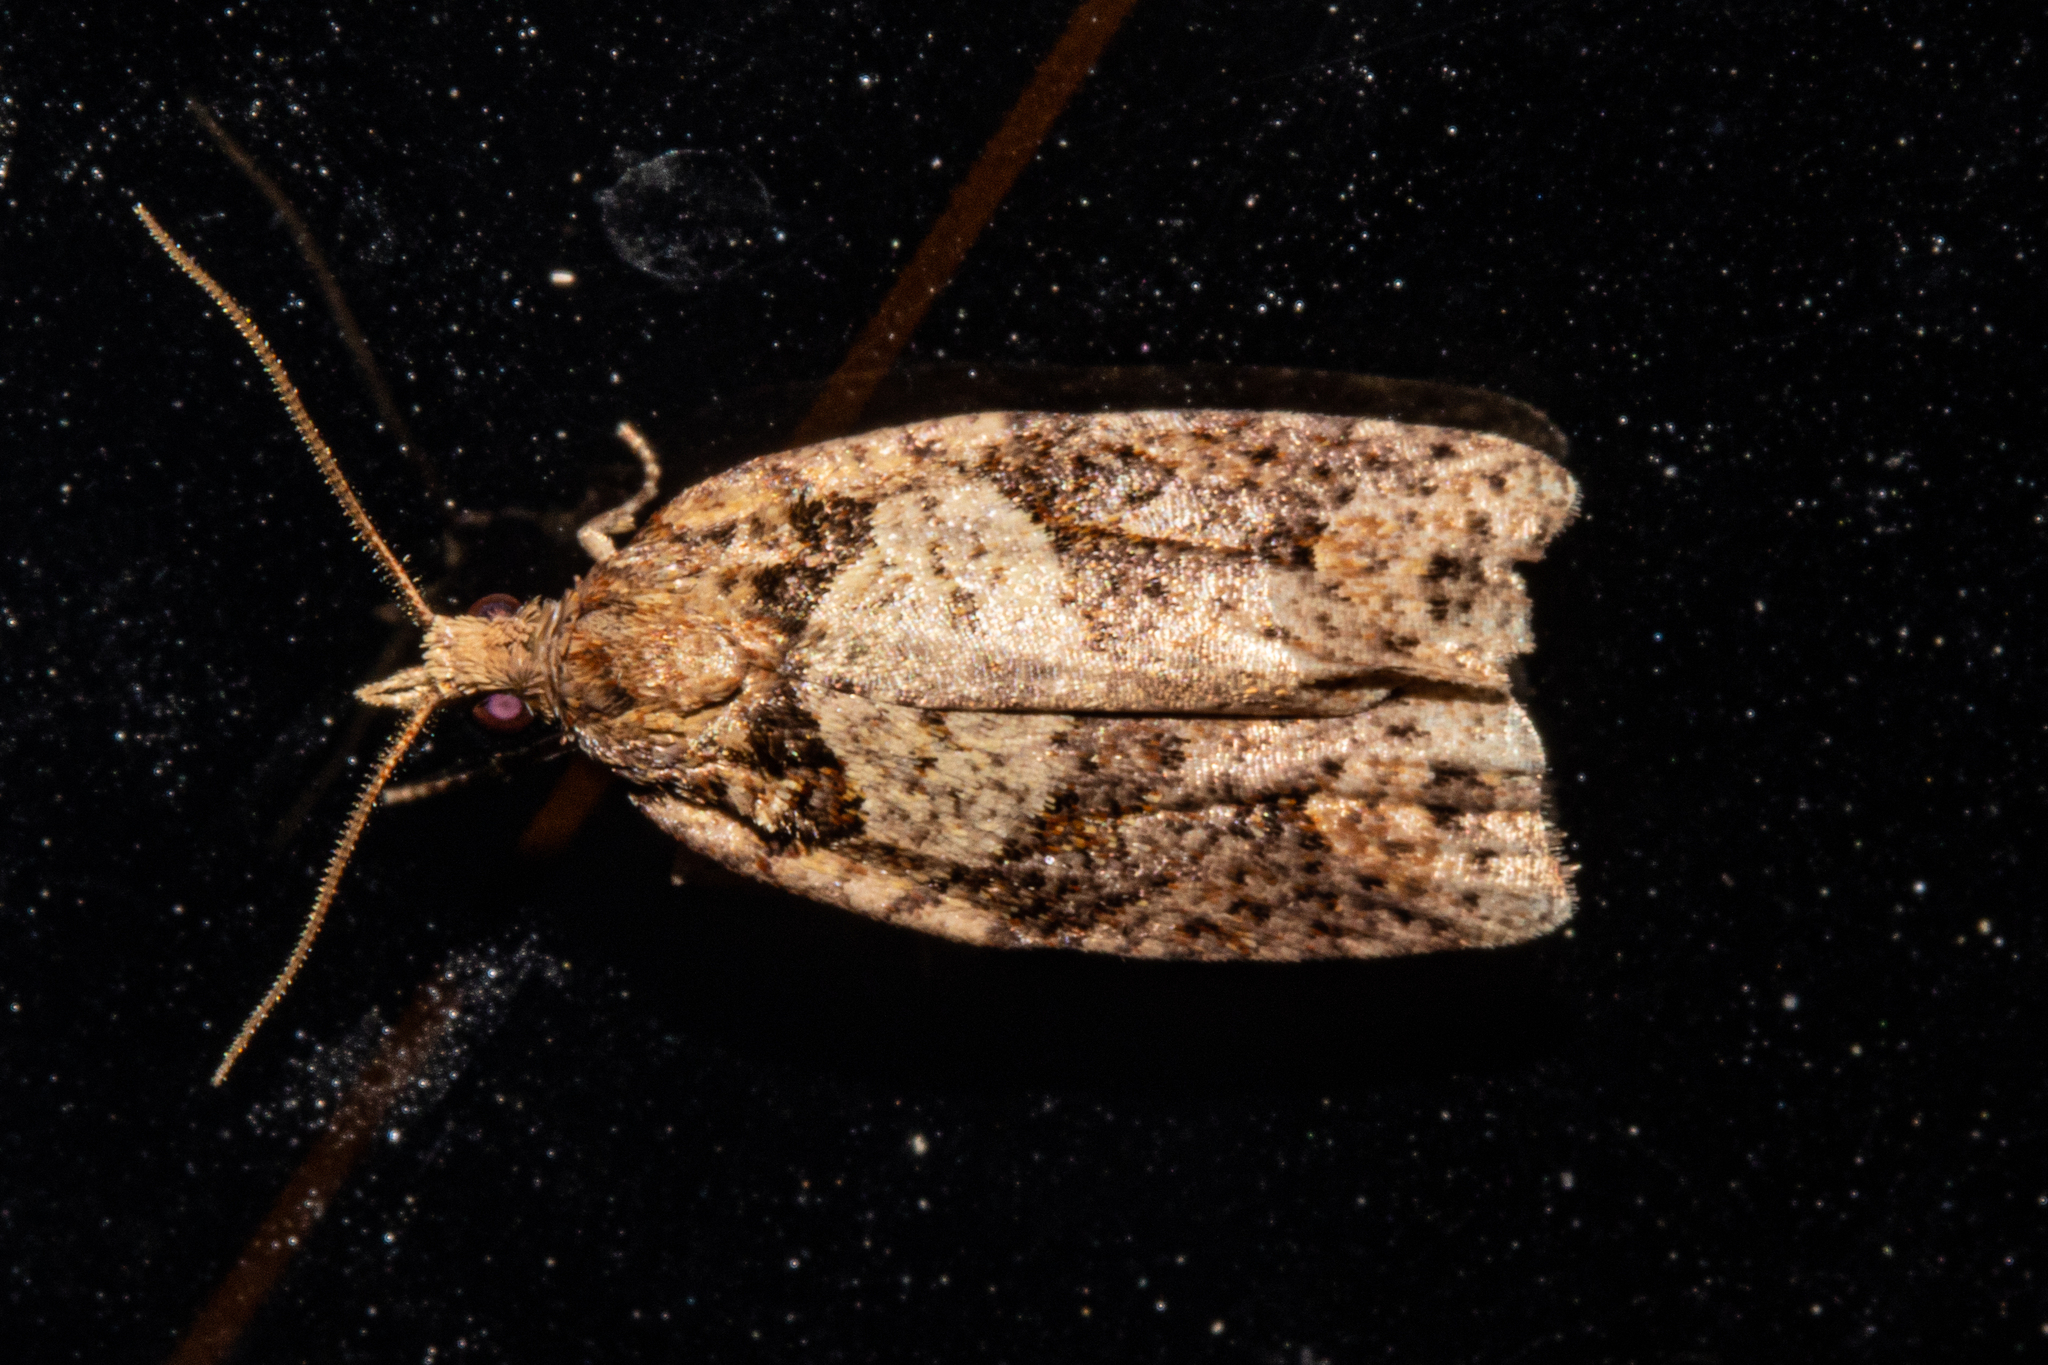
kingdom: Animalia
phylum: Arthropoda
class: Insecta
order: Lepidoptera
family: Tortricidae
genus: Ctenopseustis
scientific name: Ctenopseustis obliquana
